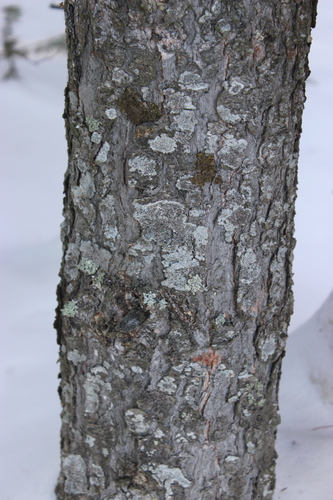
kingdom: Fungi
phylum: Ascomycota
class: Lecanoromycetes
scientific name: Lecanoromycetes
